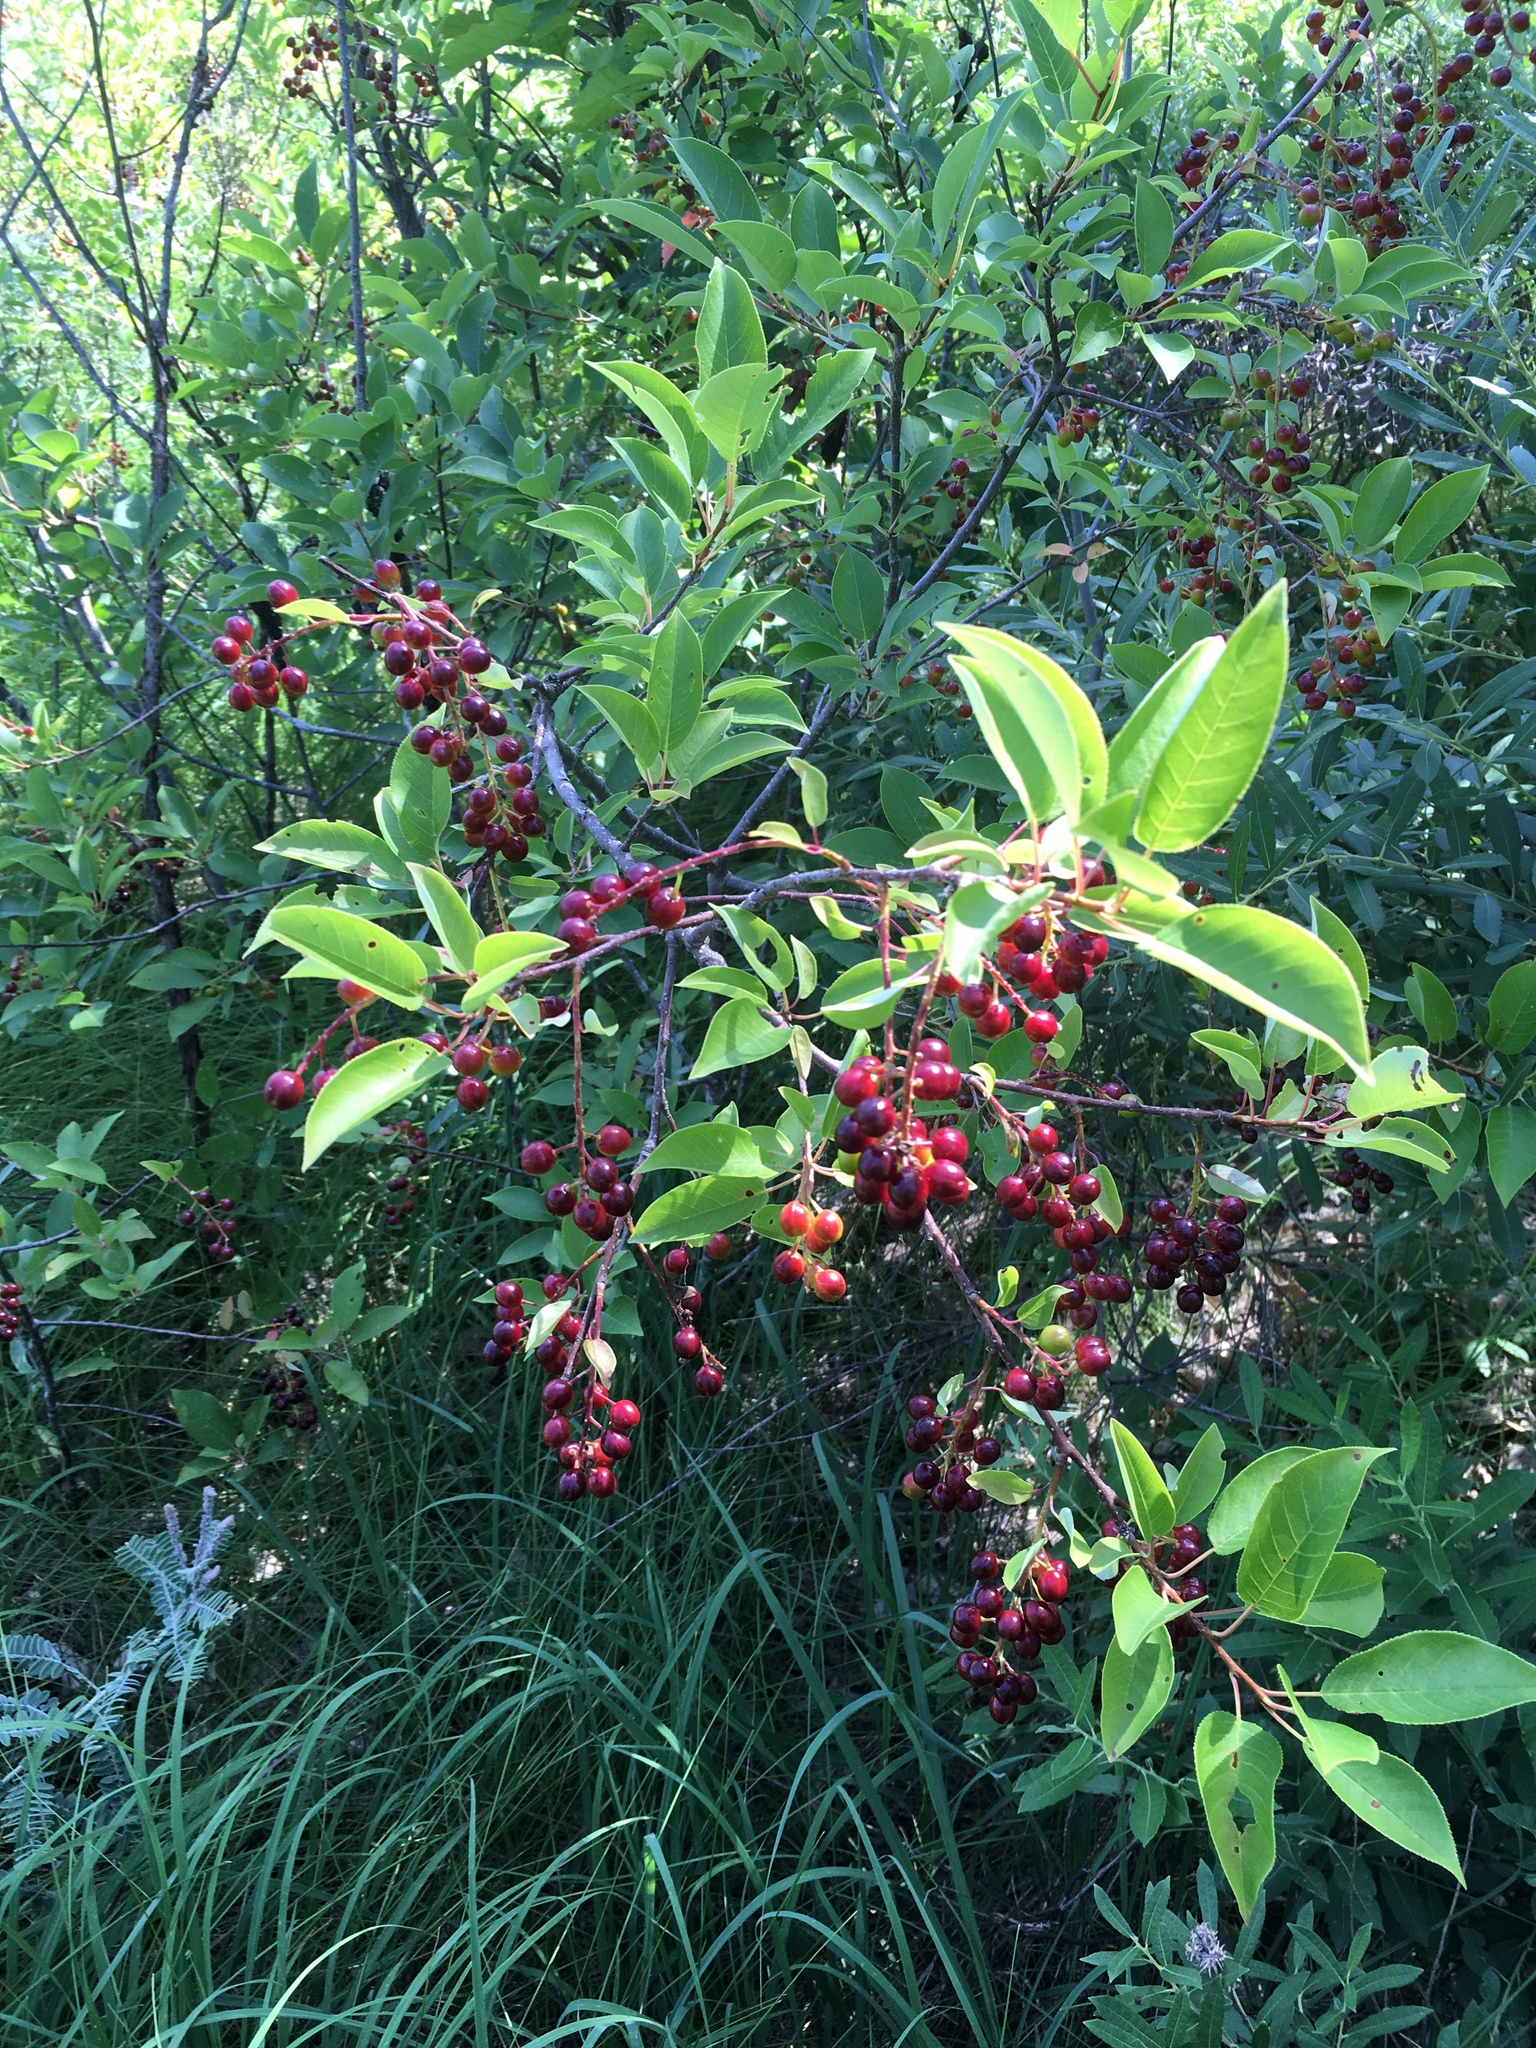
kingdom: Plantae
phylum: Tracheophyta
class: Magnoliopsida
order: Rosales
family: Rosaceae
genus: Prunus
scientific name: Prunus virginiana
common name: Chokecherry
